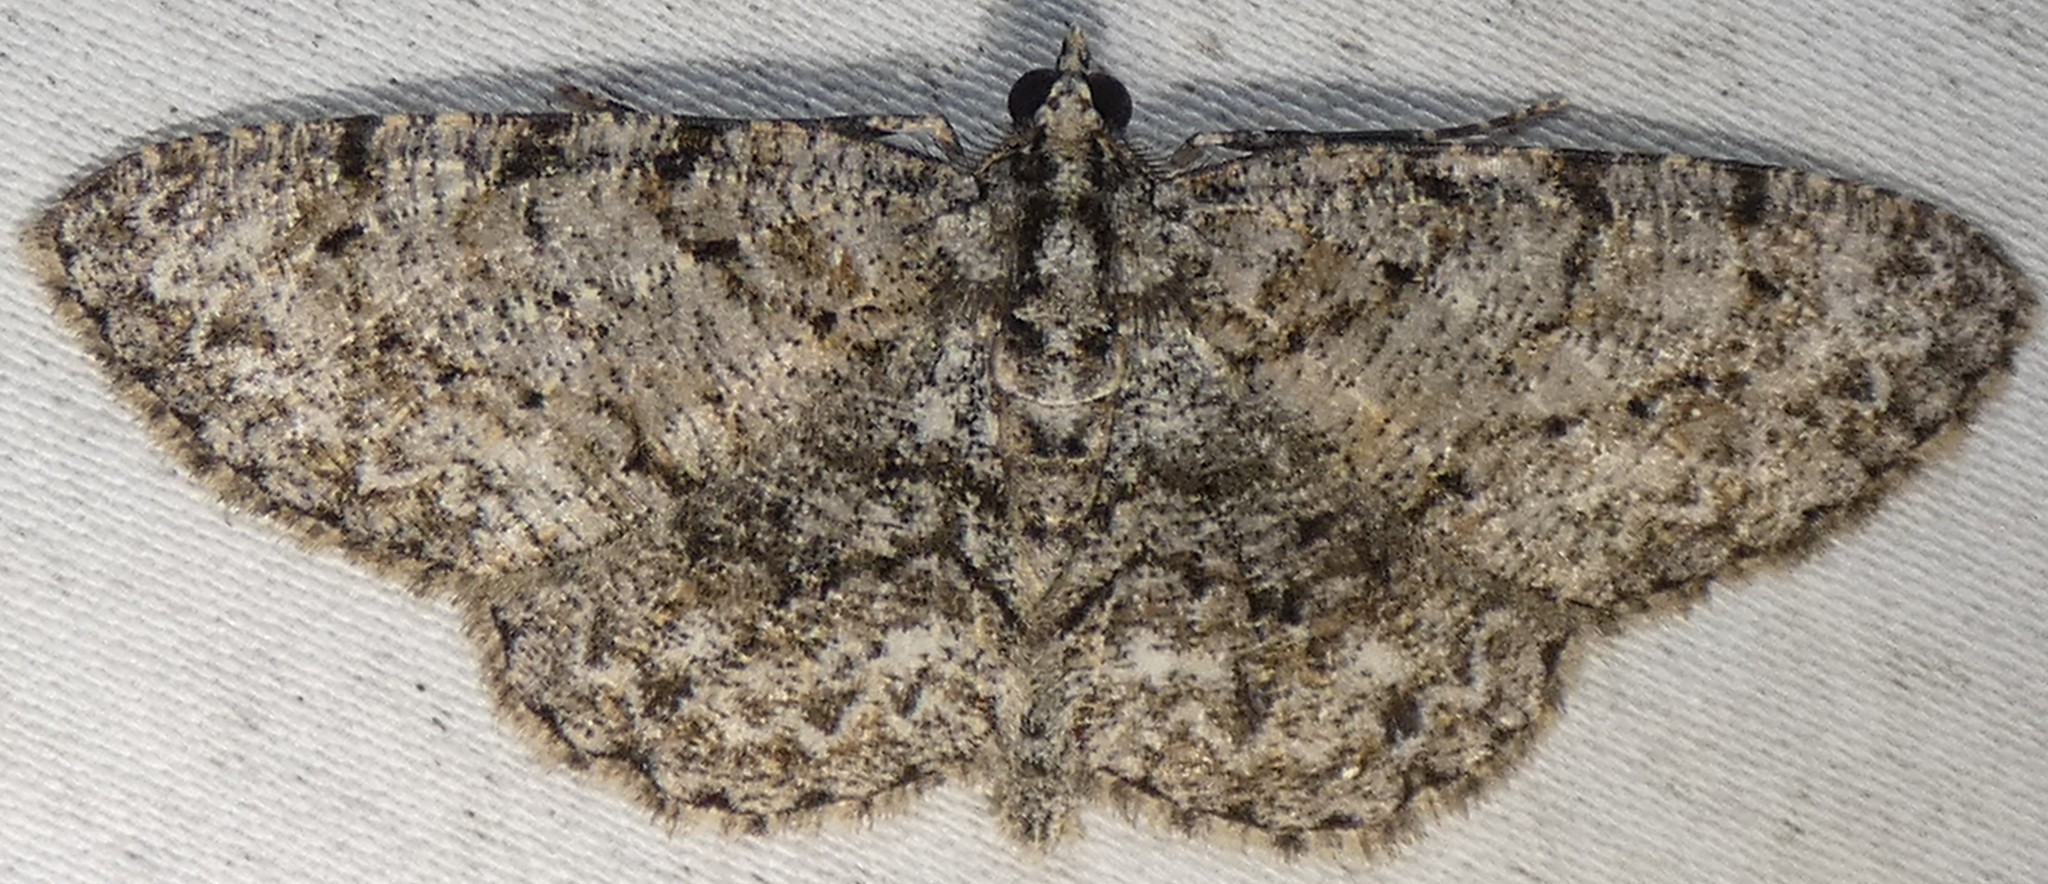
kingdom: Animalia
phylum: Arthropoda
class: Insecta
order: Lepidoptera
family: Geometridae
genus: Protoboarmia
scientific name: Protoboarmia porcelaria
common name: Porcelain gray
